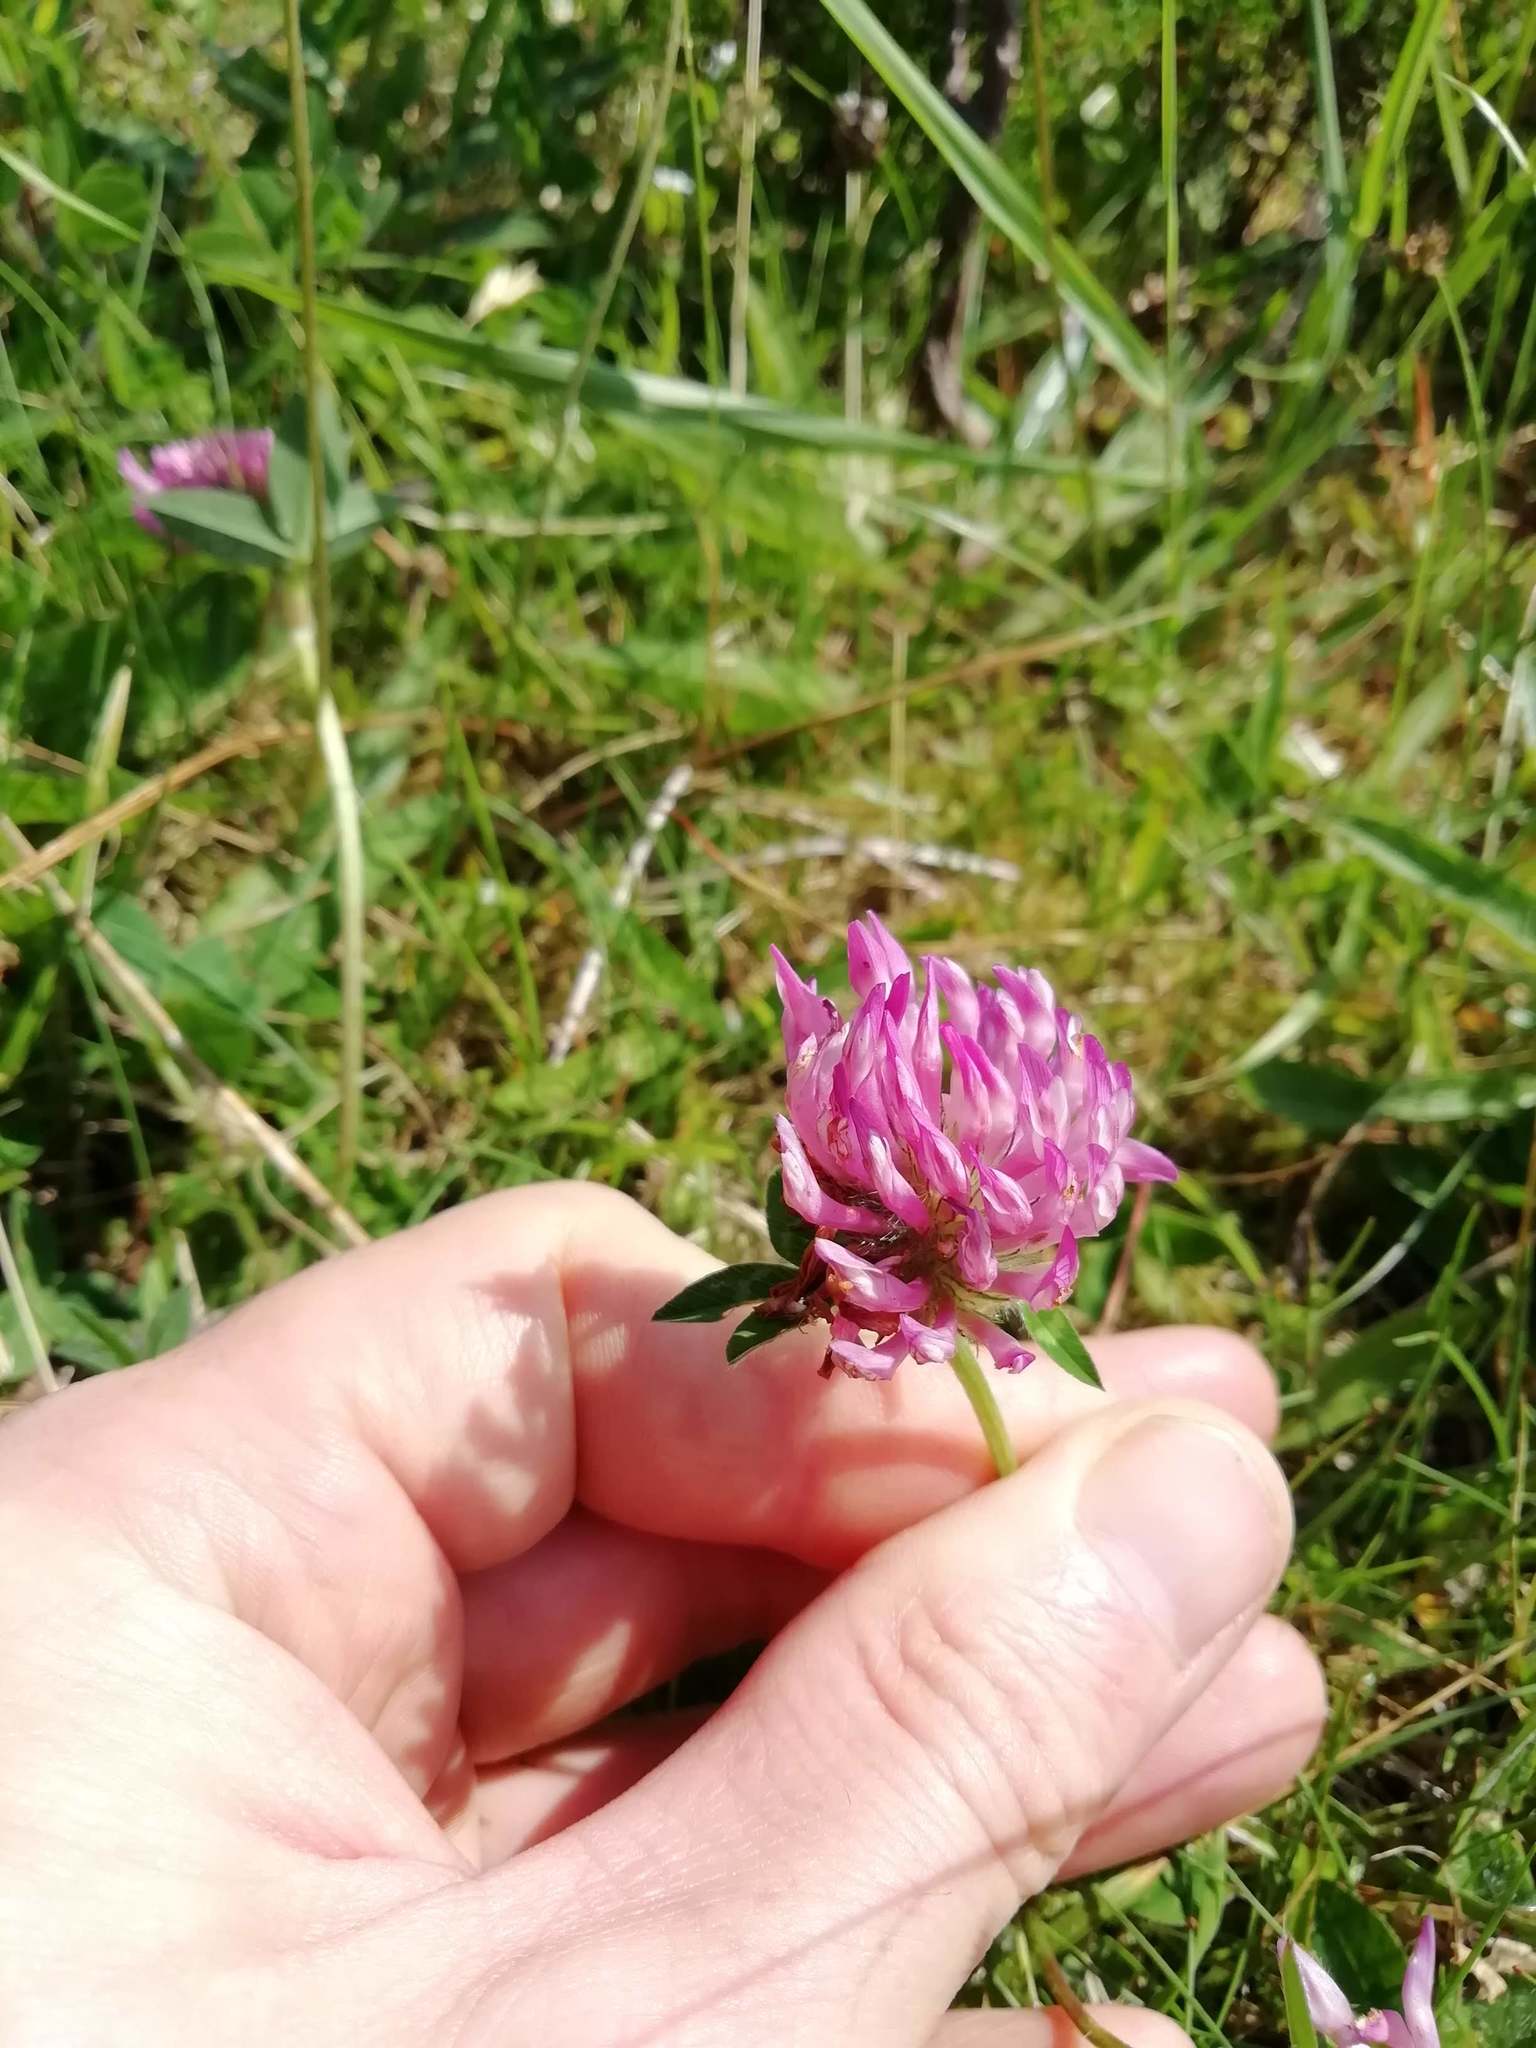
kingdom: Plantae
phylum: Tracheophyta
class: Magnoliopsida
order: Fabales
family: Fabaceae
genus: Trifolium
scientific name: Trifolium pratense
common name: Red clover
